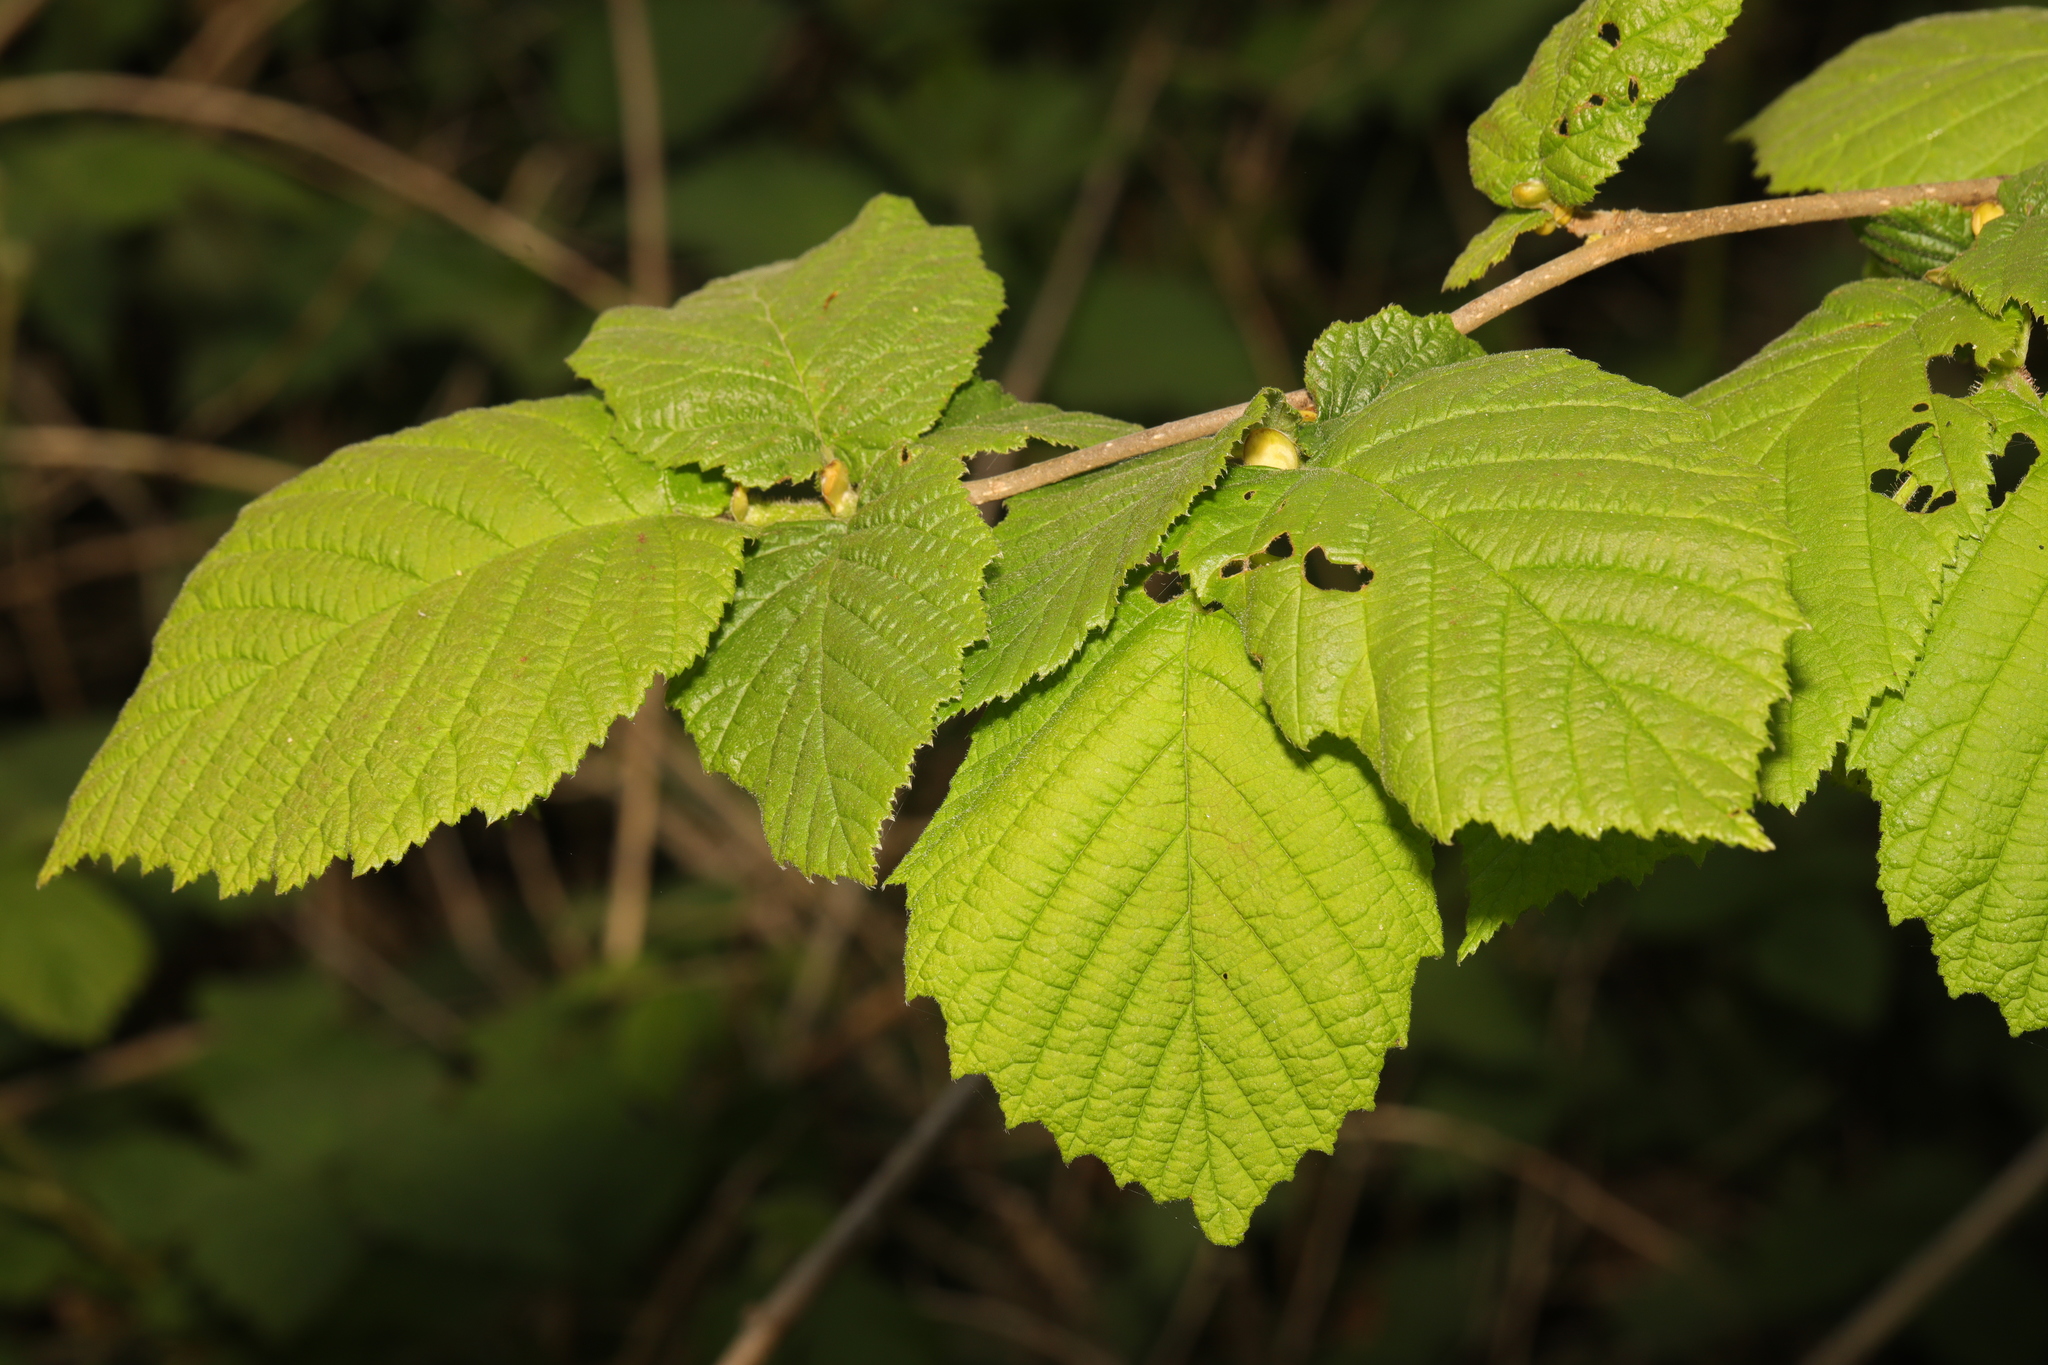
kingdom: Plantae
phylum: Tracheophyta
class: Magnoliopsida
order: Fagales
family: Betulaceae
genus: Corylus
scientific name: Corylus avellana
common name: European hazel
